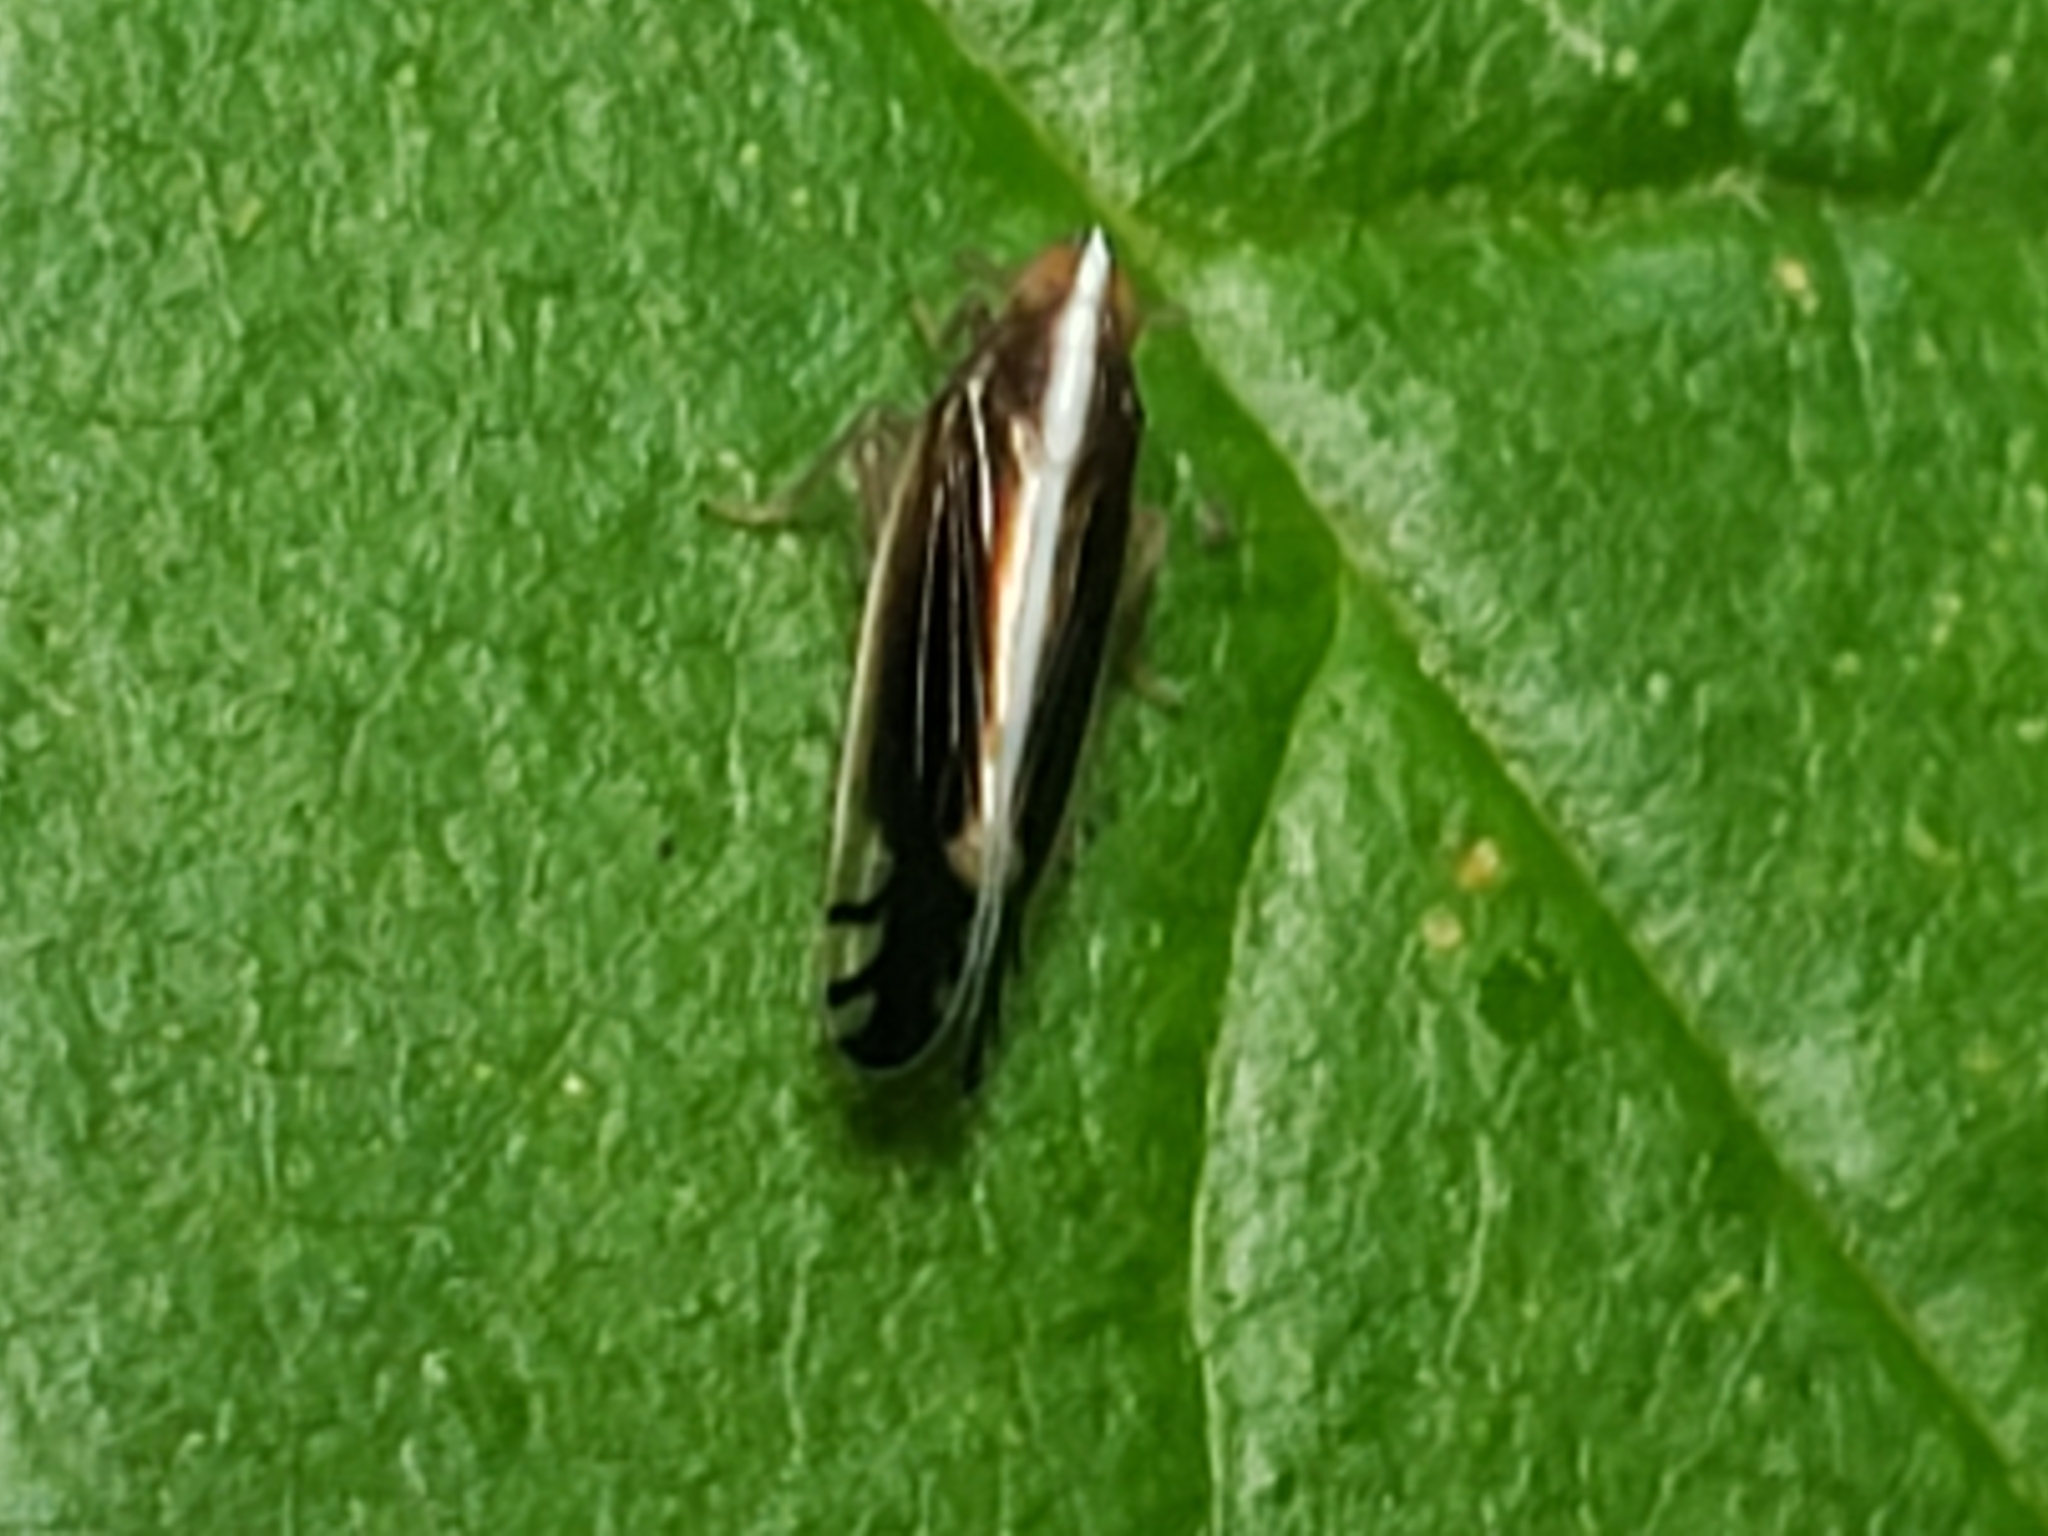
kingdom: Animalia
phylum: Arthropoda
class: Insecta
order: Hemiptera
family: Delphacidae
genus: Stenocranus
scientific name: Stenocranus brunneus
